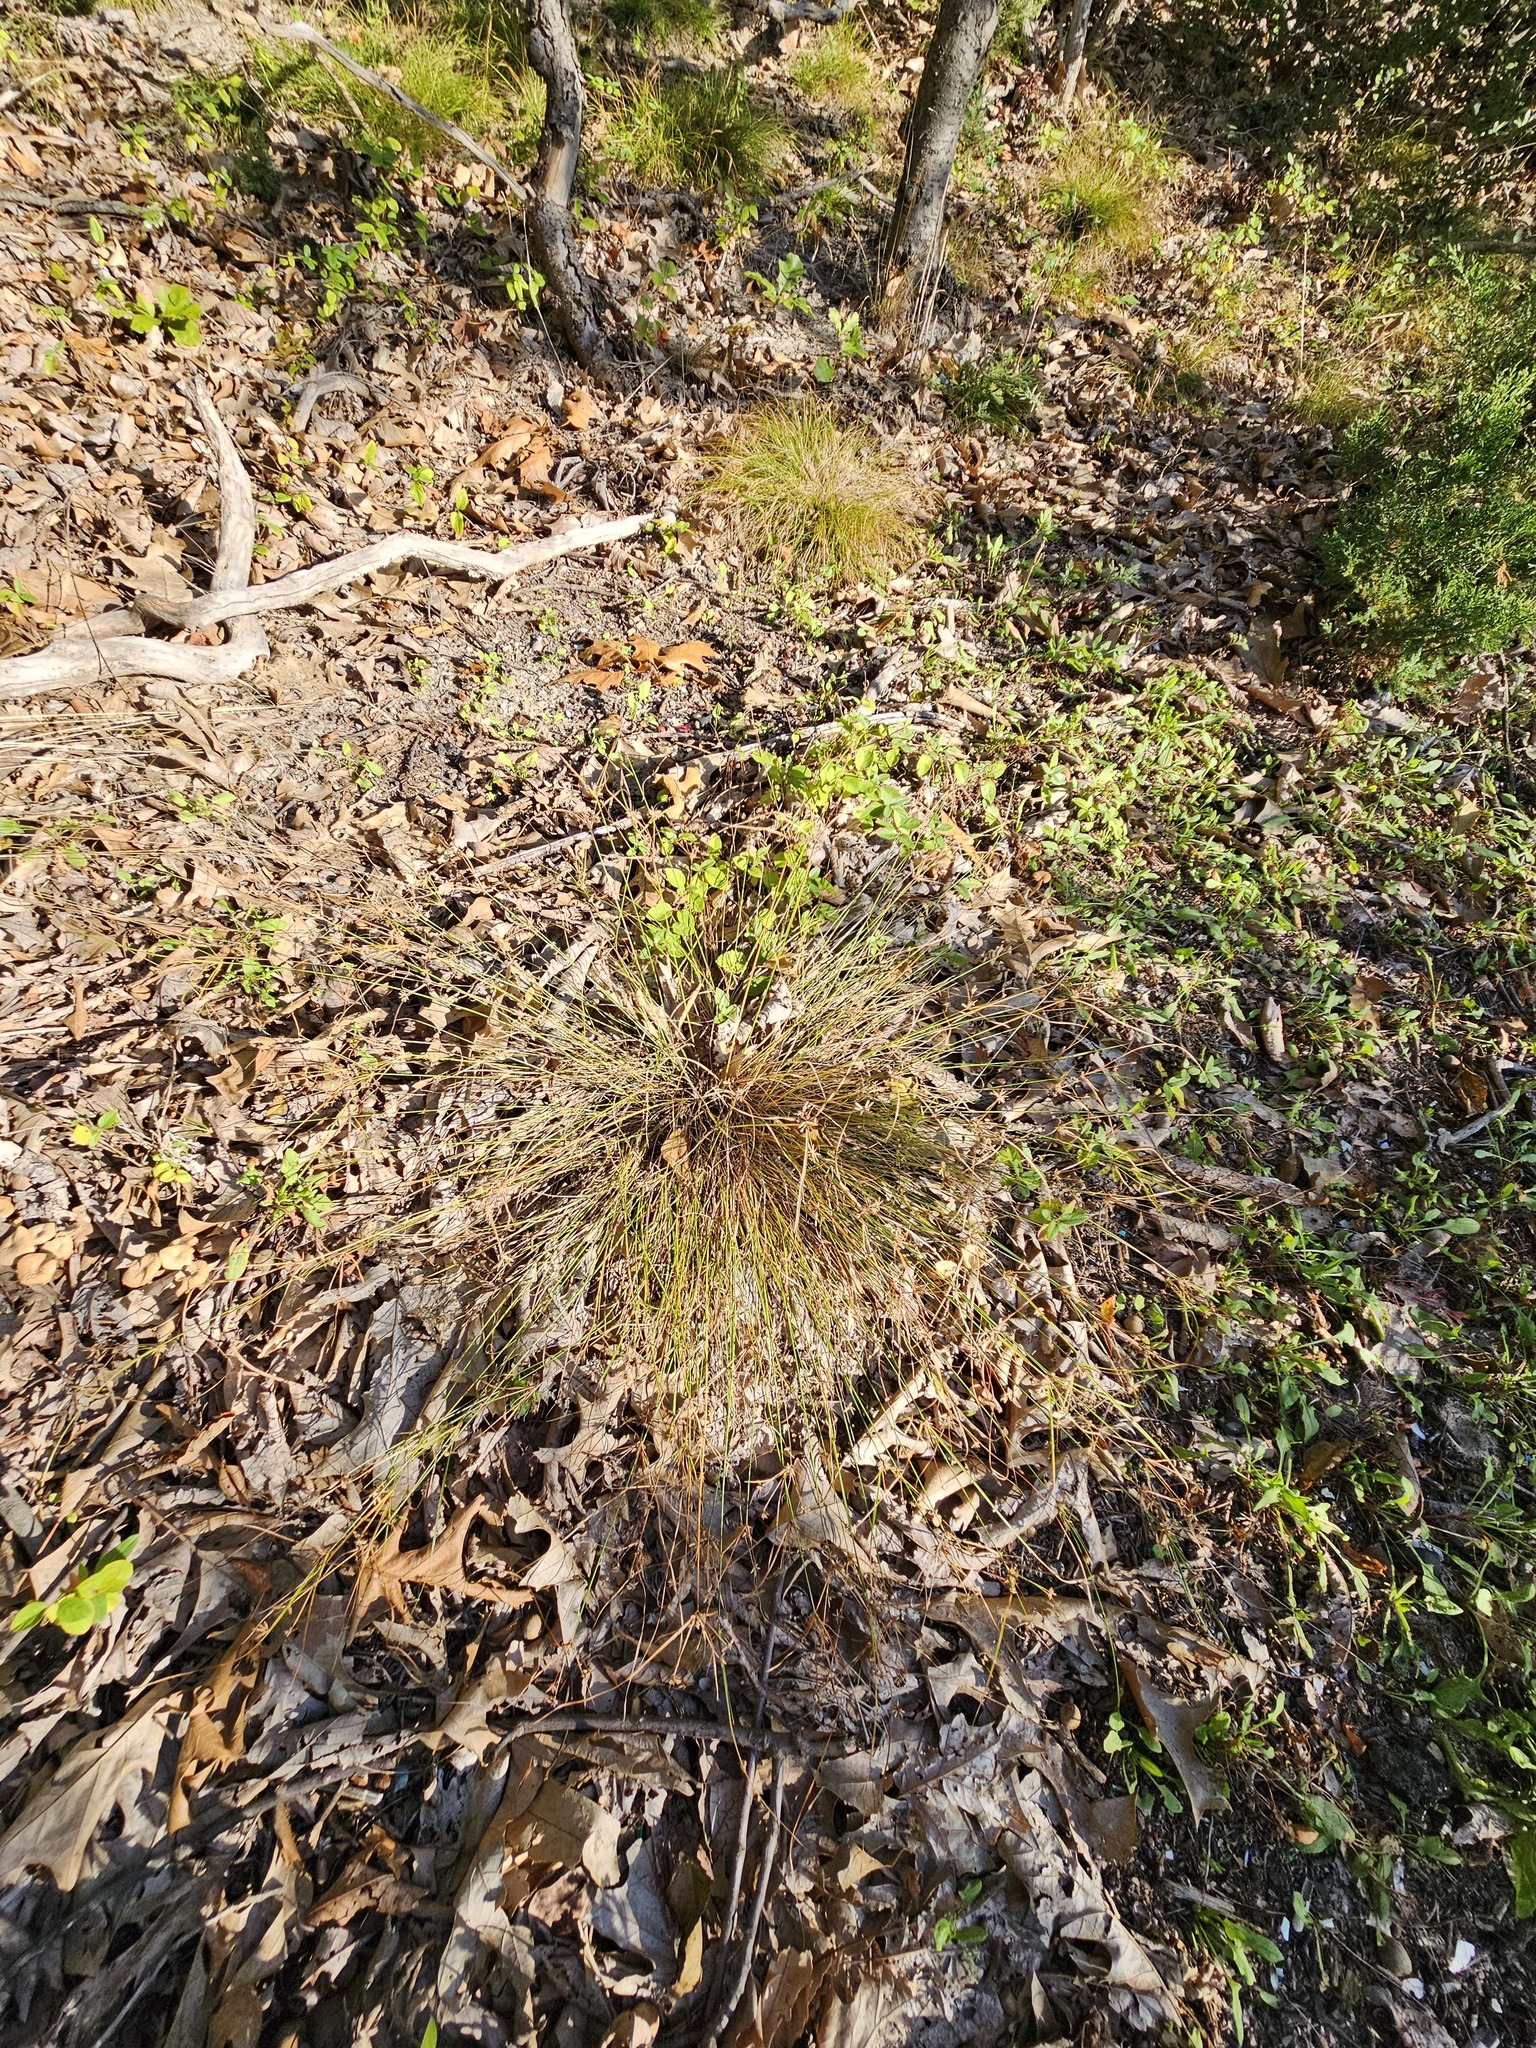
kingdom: Plantae
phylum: Tracheophyta
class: Liliopsida
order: Poales
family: Cyperaceae
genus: Cyperus
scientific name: Cyperus lupulinus
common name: Great plains flatsedge
